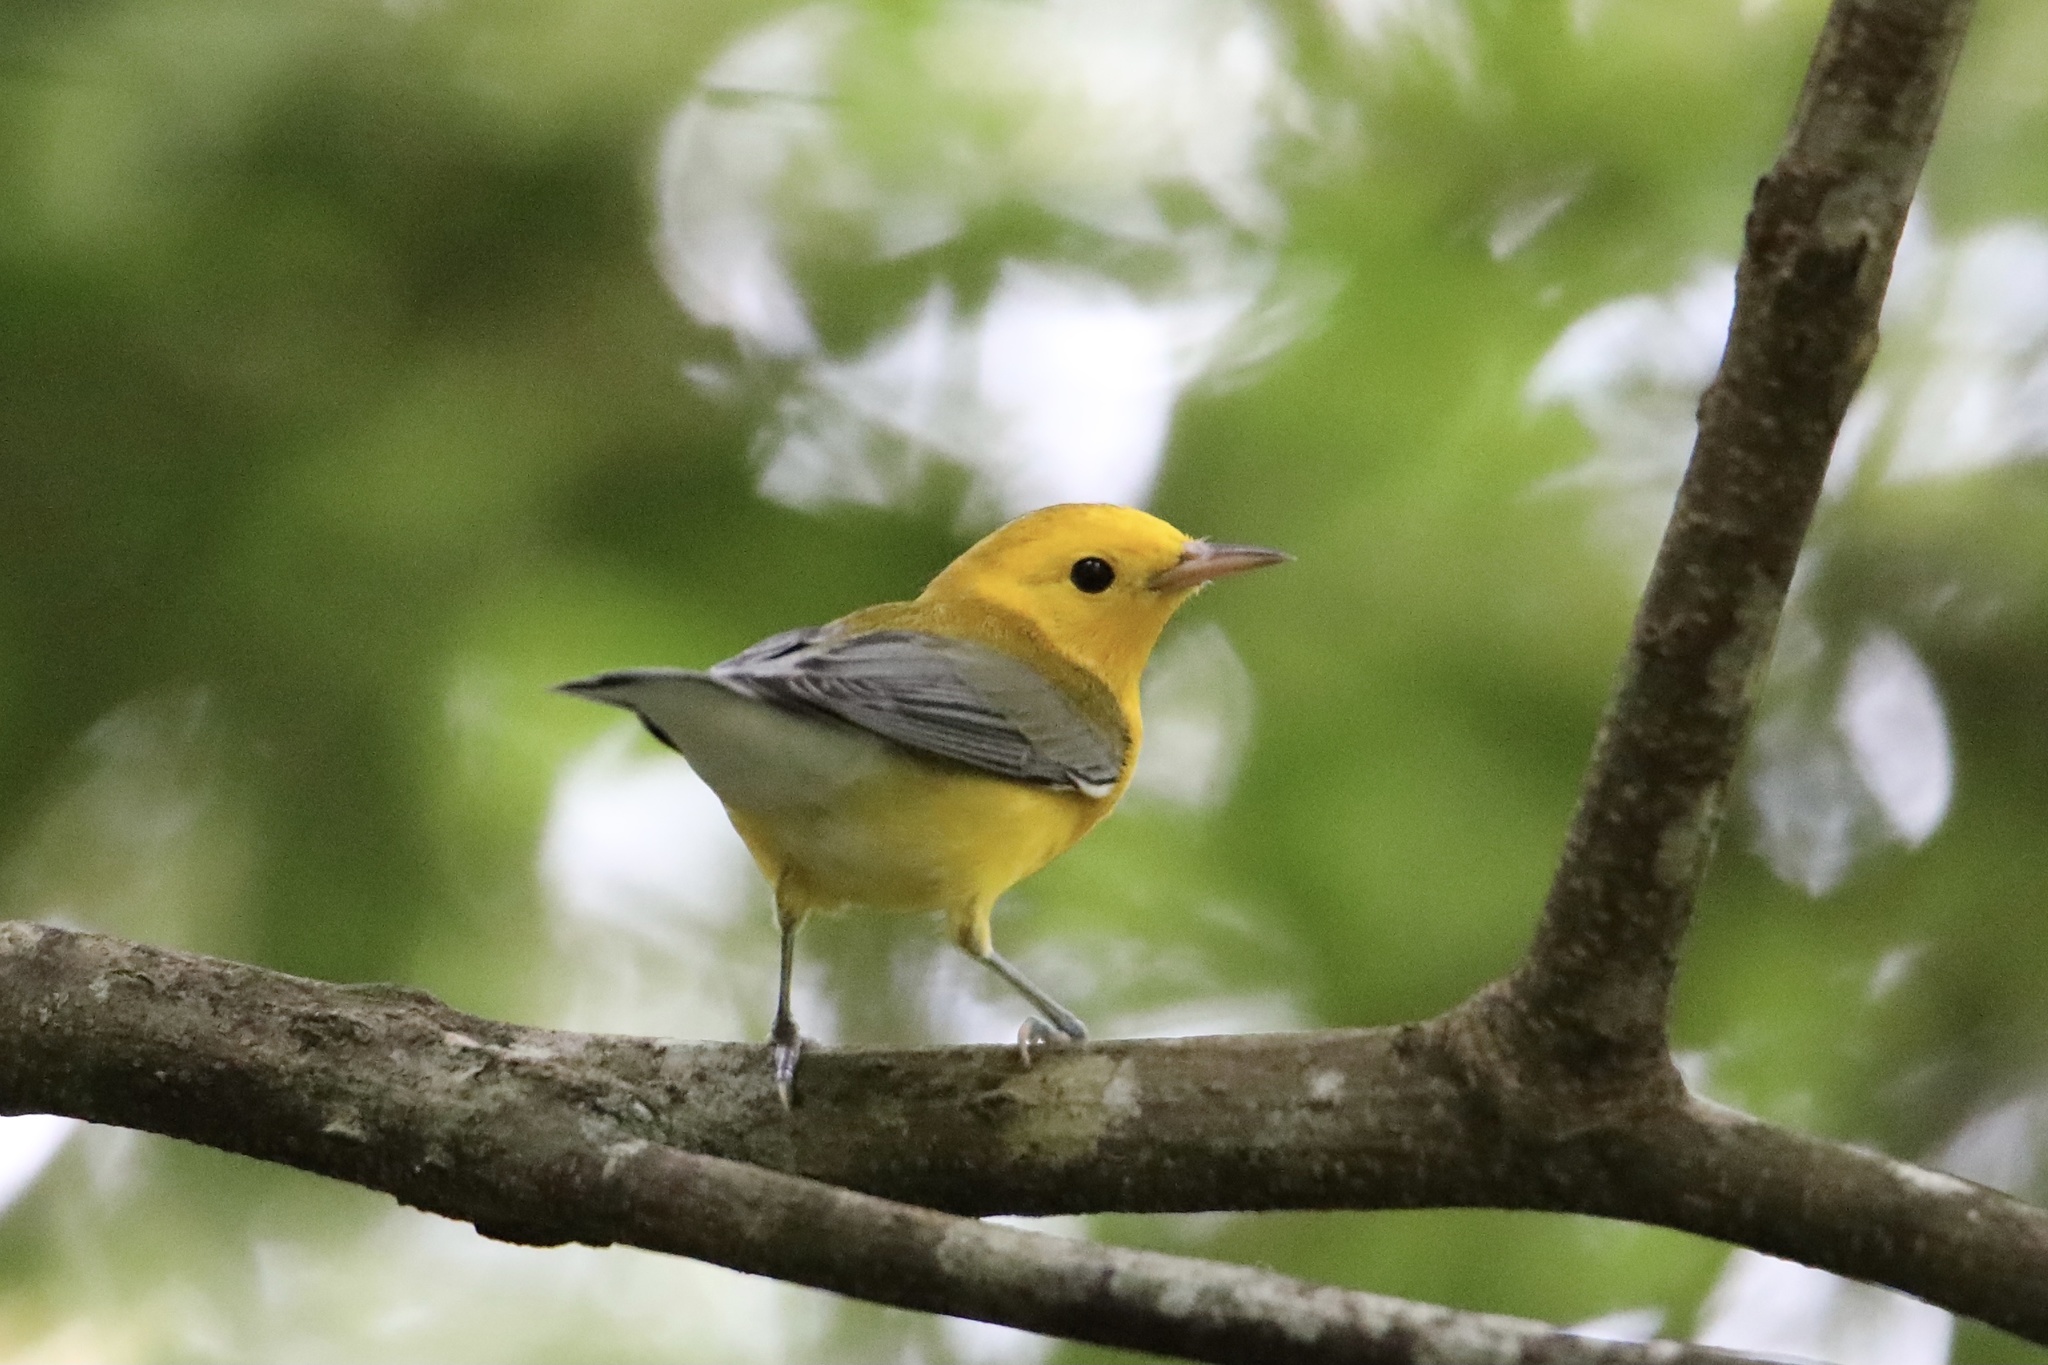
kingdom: Animalia
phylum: Chordata
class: Aves
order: Passeriformes
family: Parulidae
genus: Protonotaria
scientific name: Protonotaria citrea
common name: Prothonotary warbler
